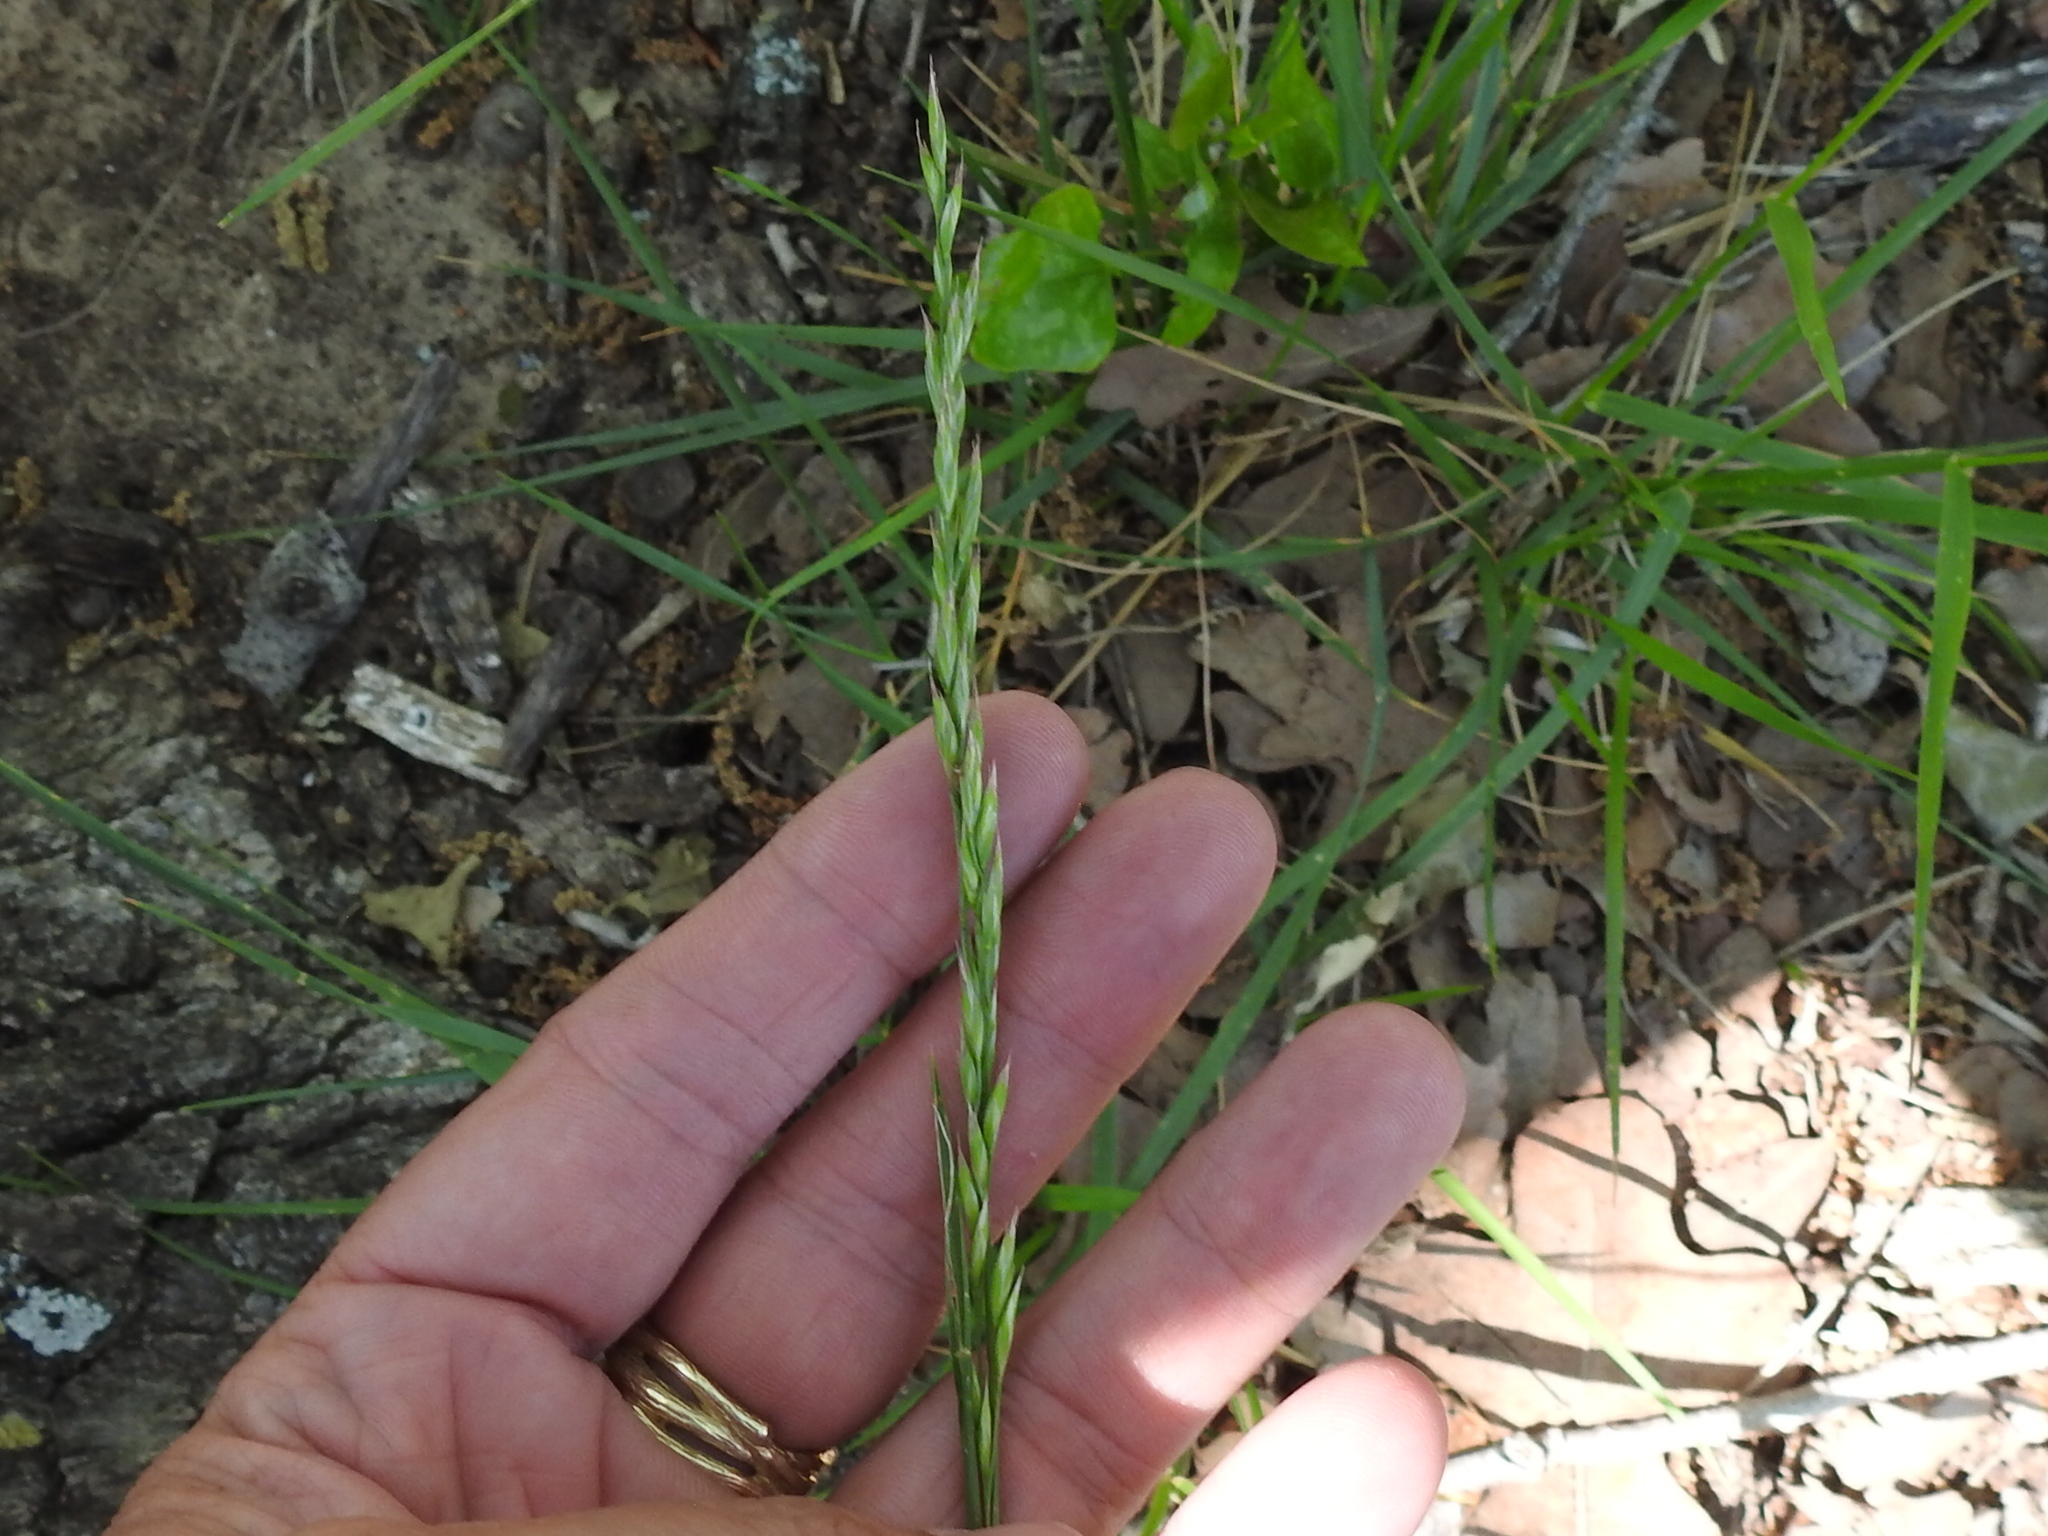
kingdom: Plantae
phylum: Tracheophyta
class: Liliopsida
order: Poales
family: Poaceae
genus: Lolium
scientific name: Lolium arundinaceum
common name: Reed fescue
